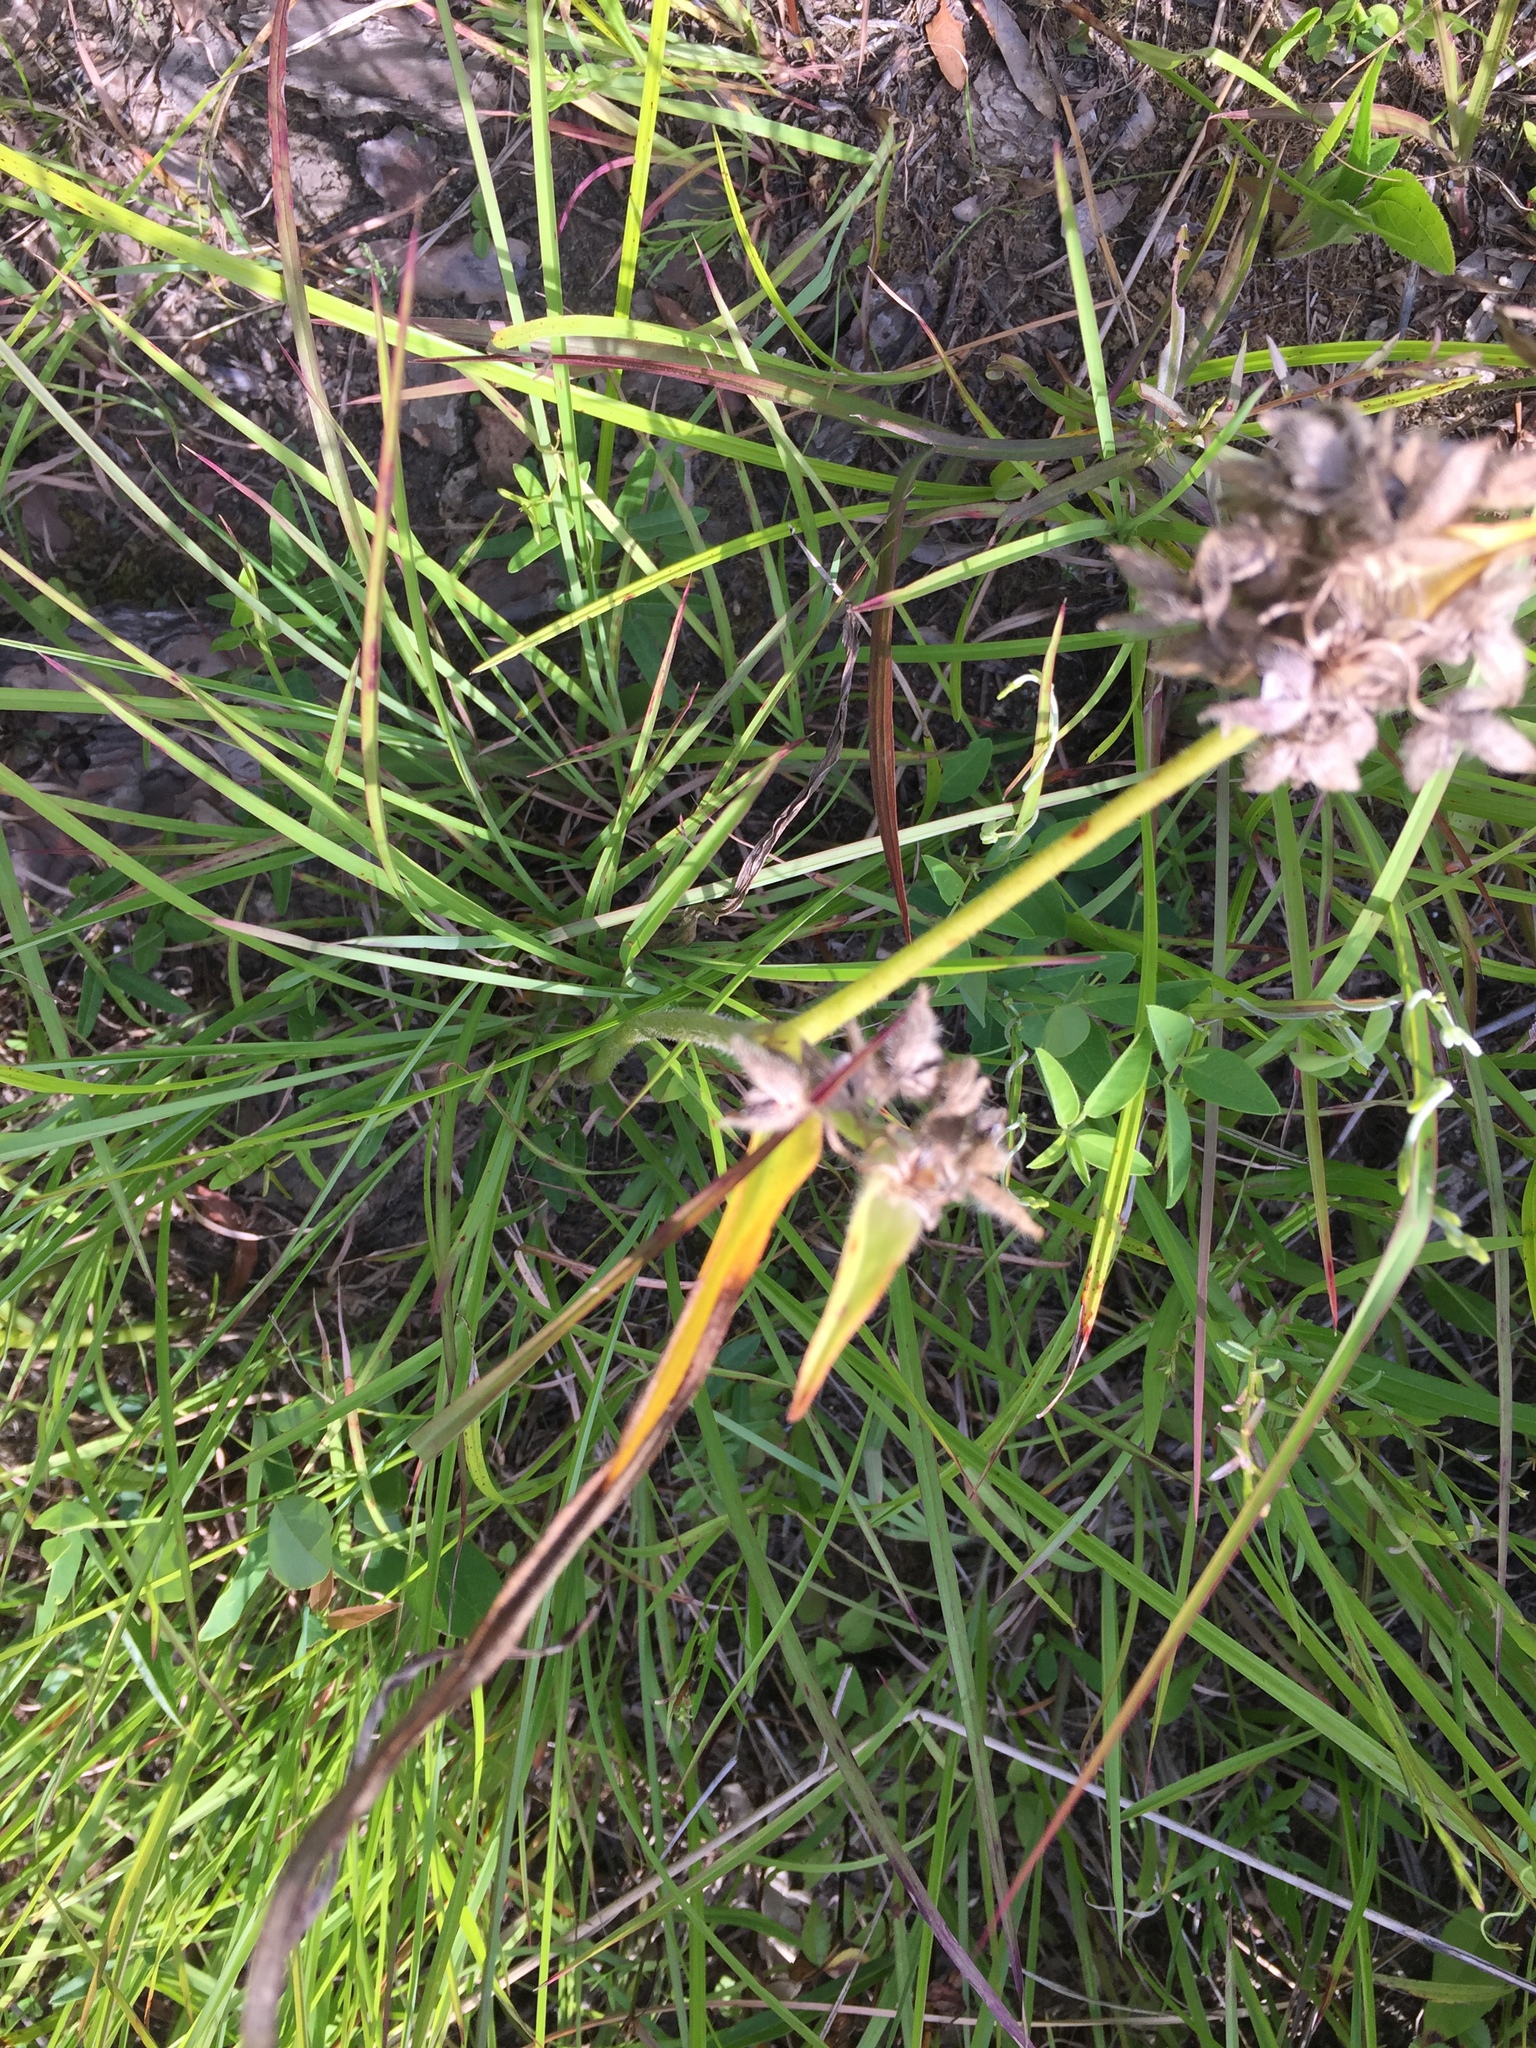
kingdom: Plantae
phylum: Tracheophyta
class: Liliopsida
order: Commelinales
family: Commelinaceae
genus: Tradescantia
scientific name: Tradescantia hirsutiflora
